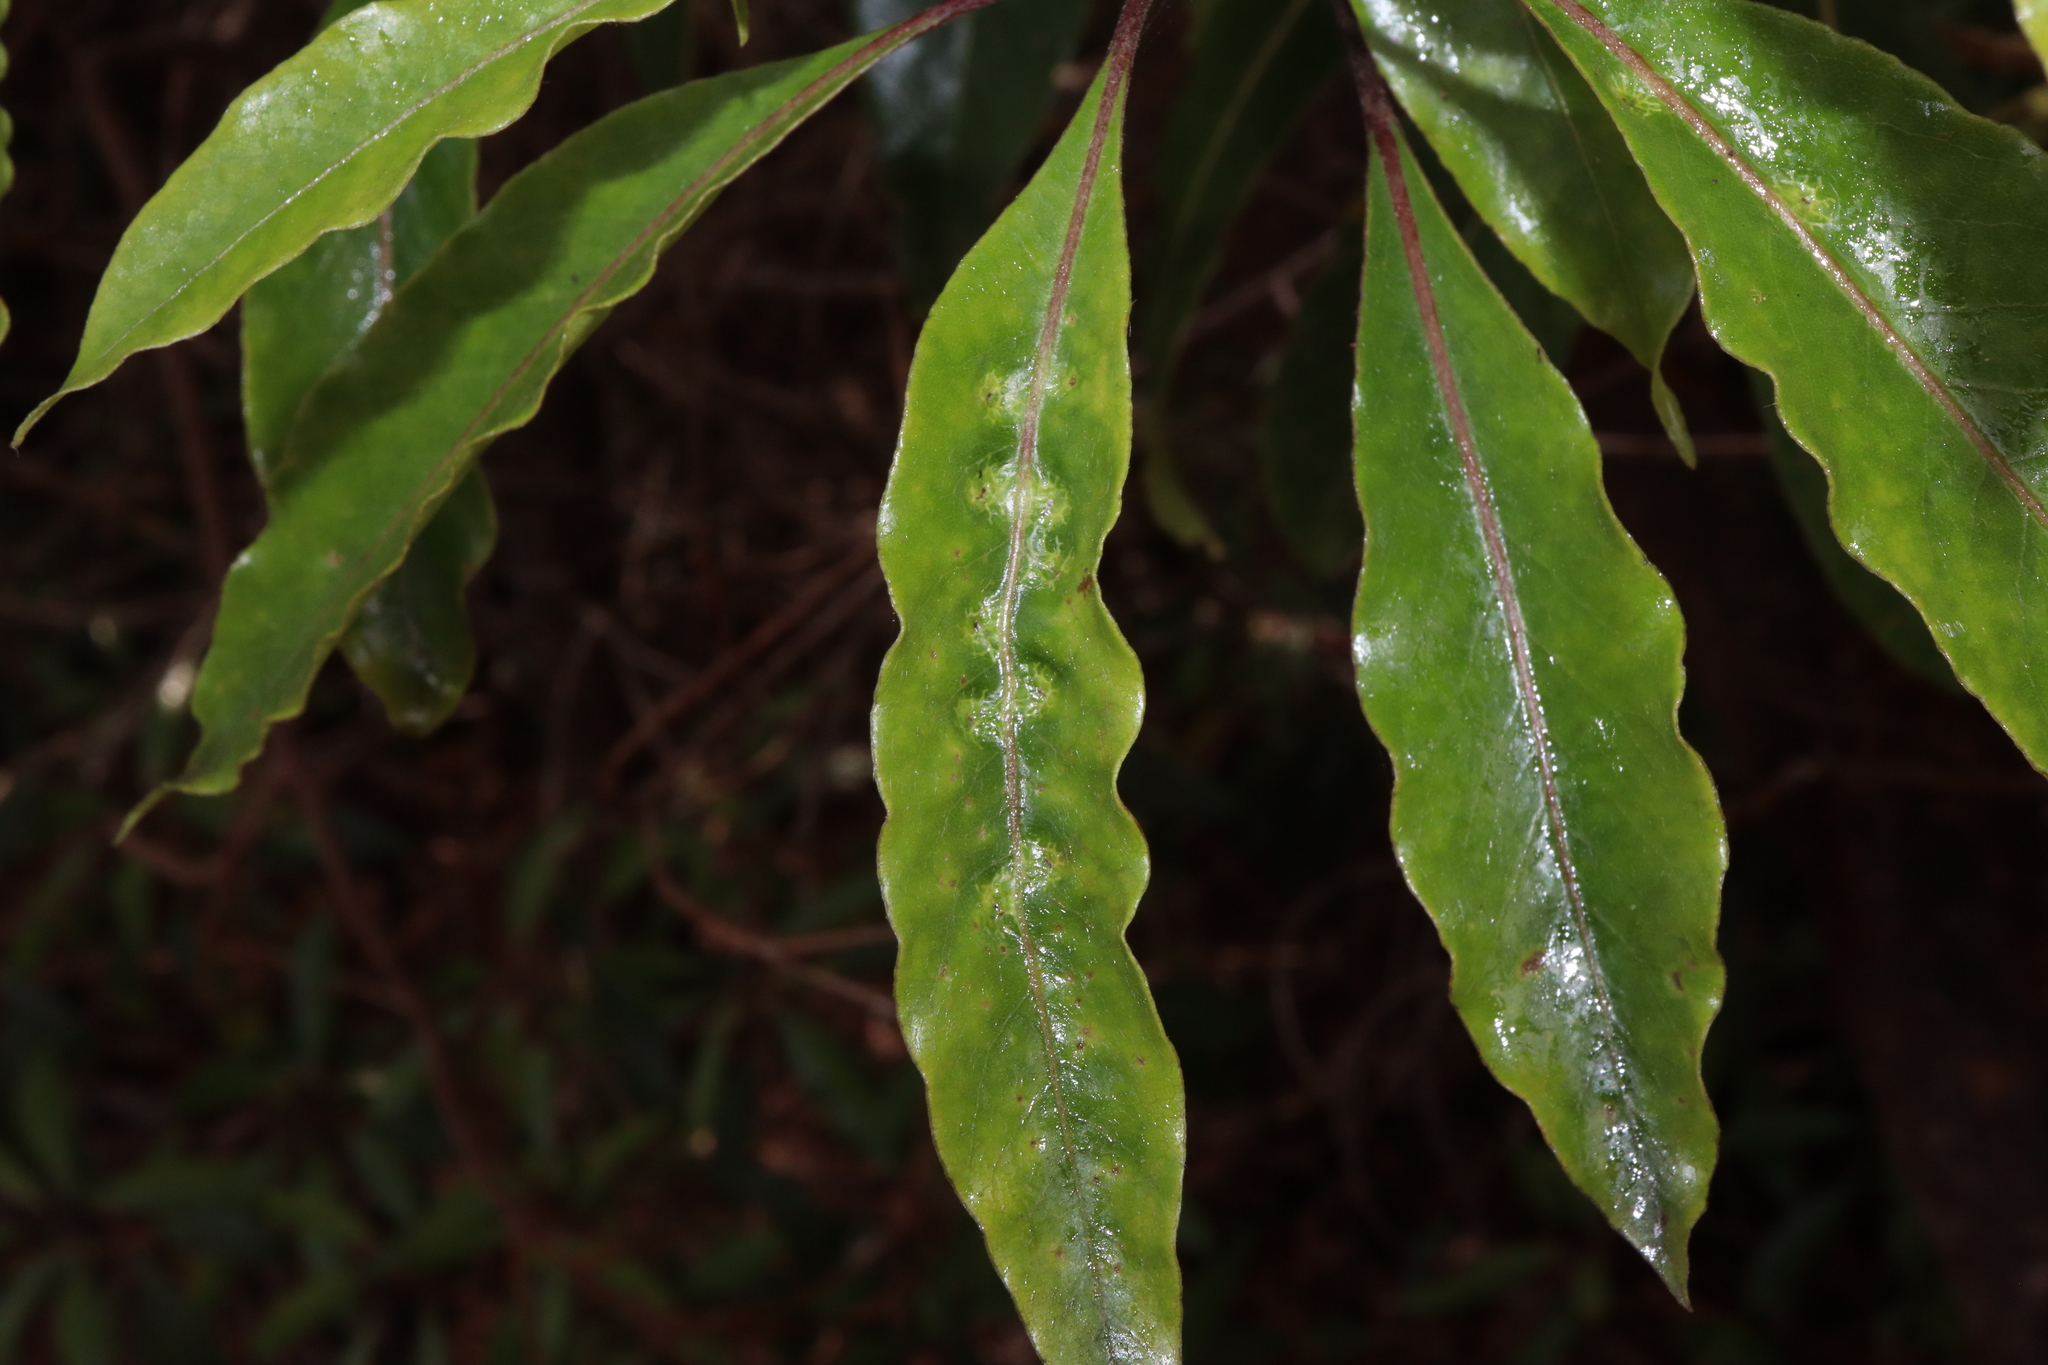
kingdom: Animalia
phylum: Arthropoda
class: Insecta
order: Diptera
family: Agromyzidae
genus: Phytoliriomyza
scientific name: Phytoliriomyza pittosporophylli
